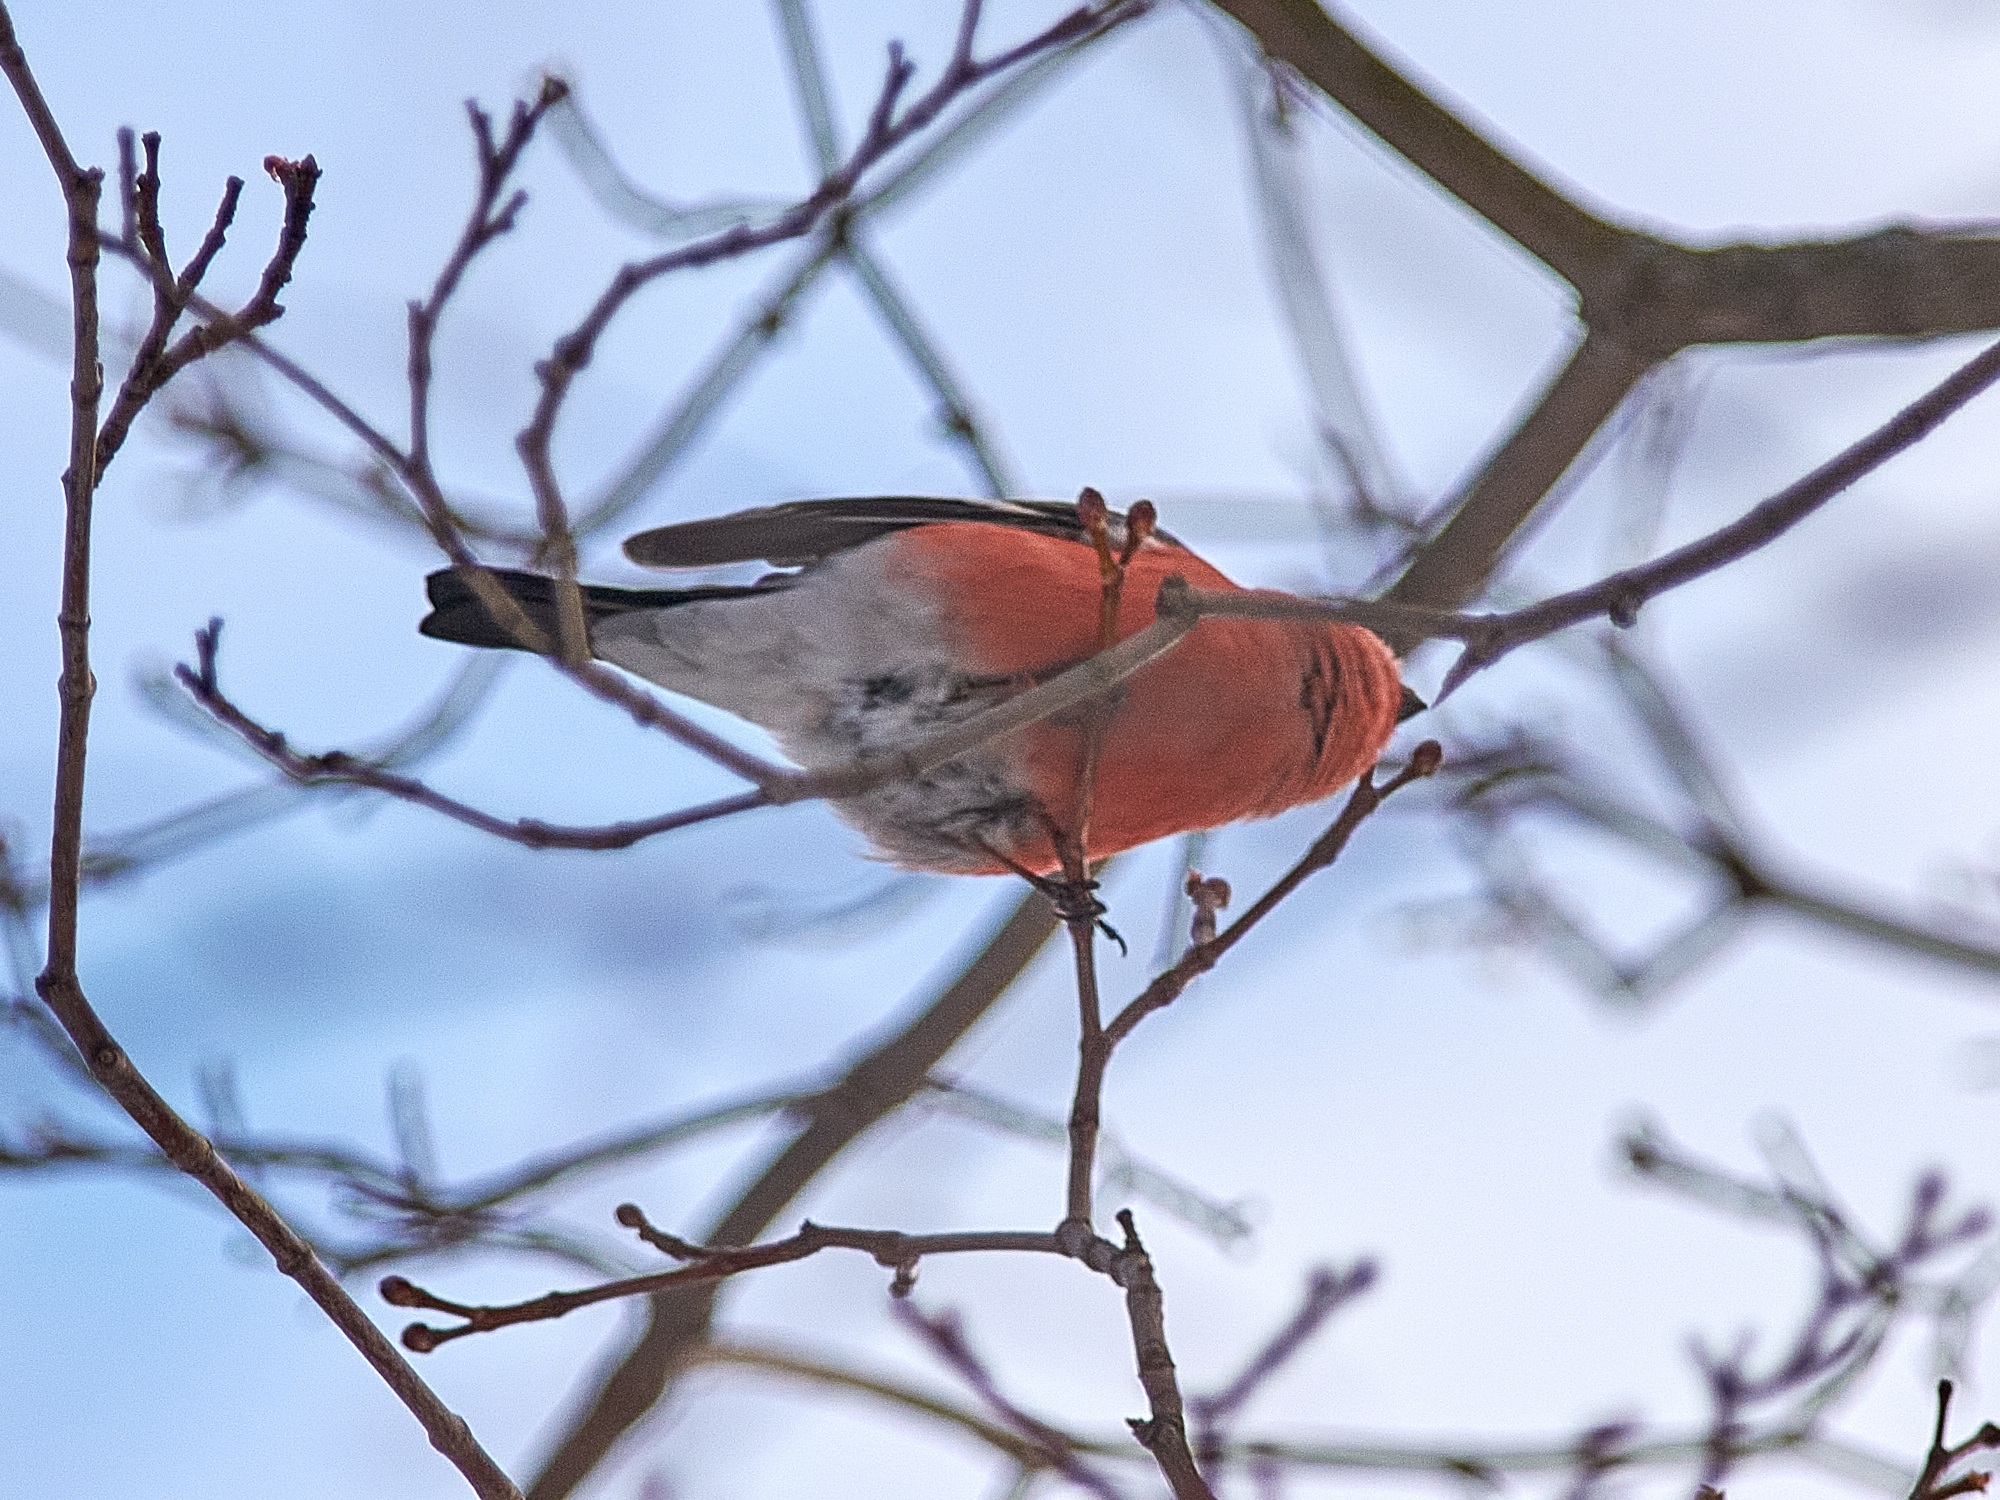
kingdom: Animalia
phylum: Chordata
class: Aves
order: Passeriformes
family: Fringillidae
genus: Pyrrhula
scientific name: Pyrrhula pyrrhula
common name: Eurasian bullfinch
